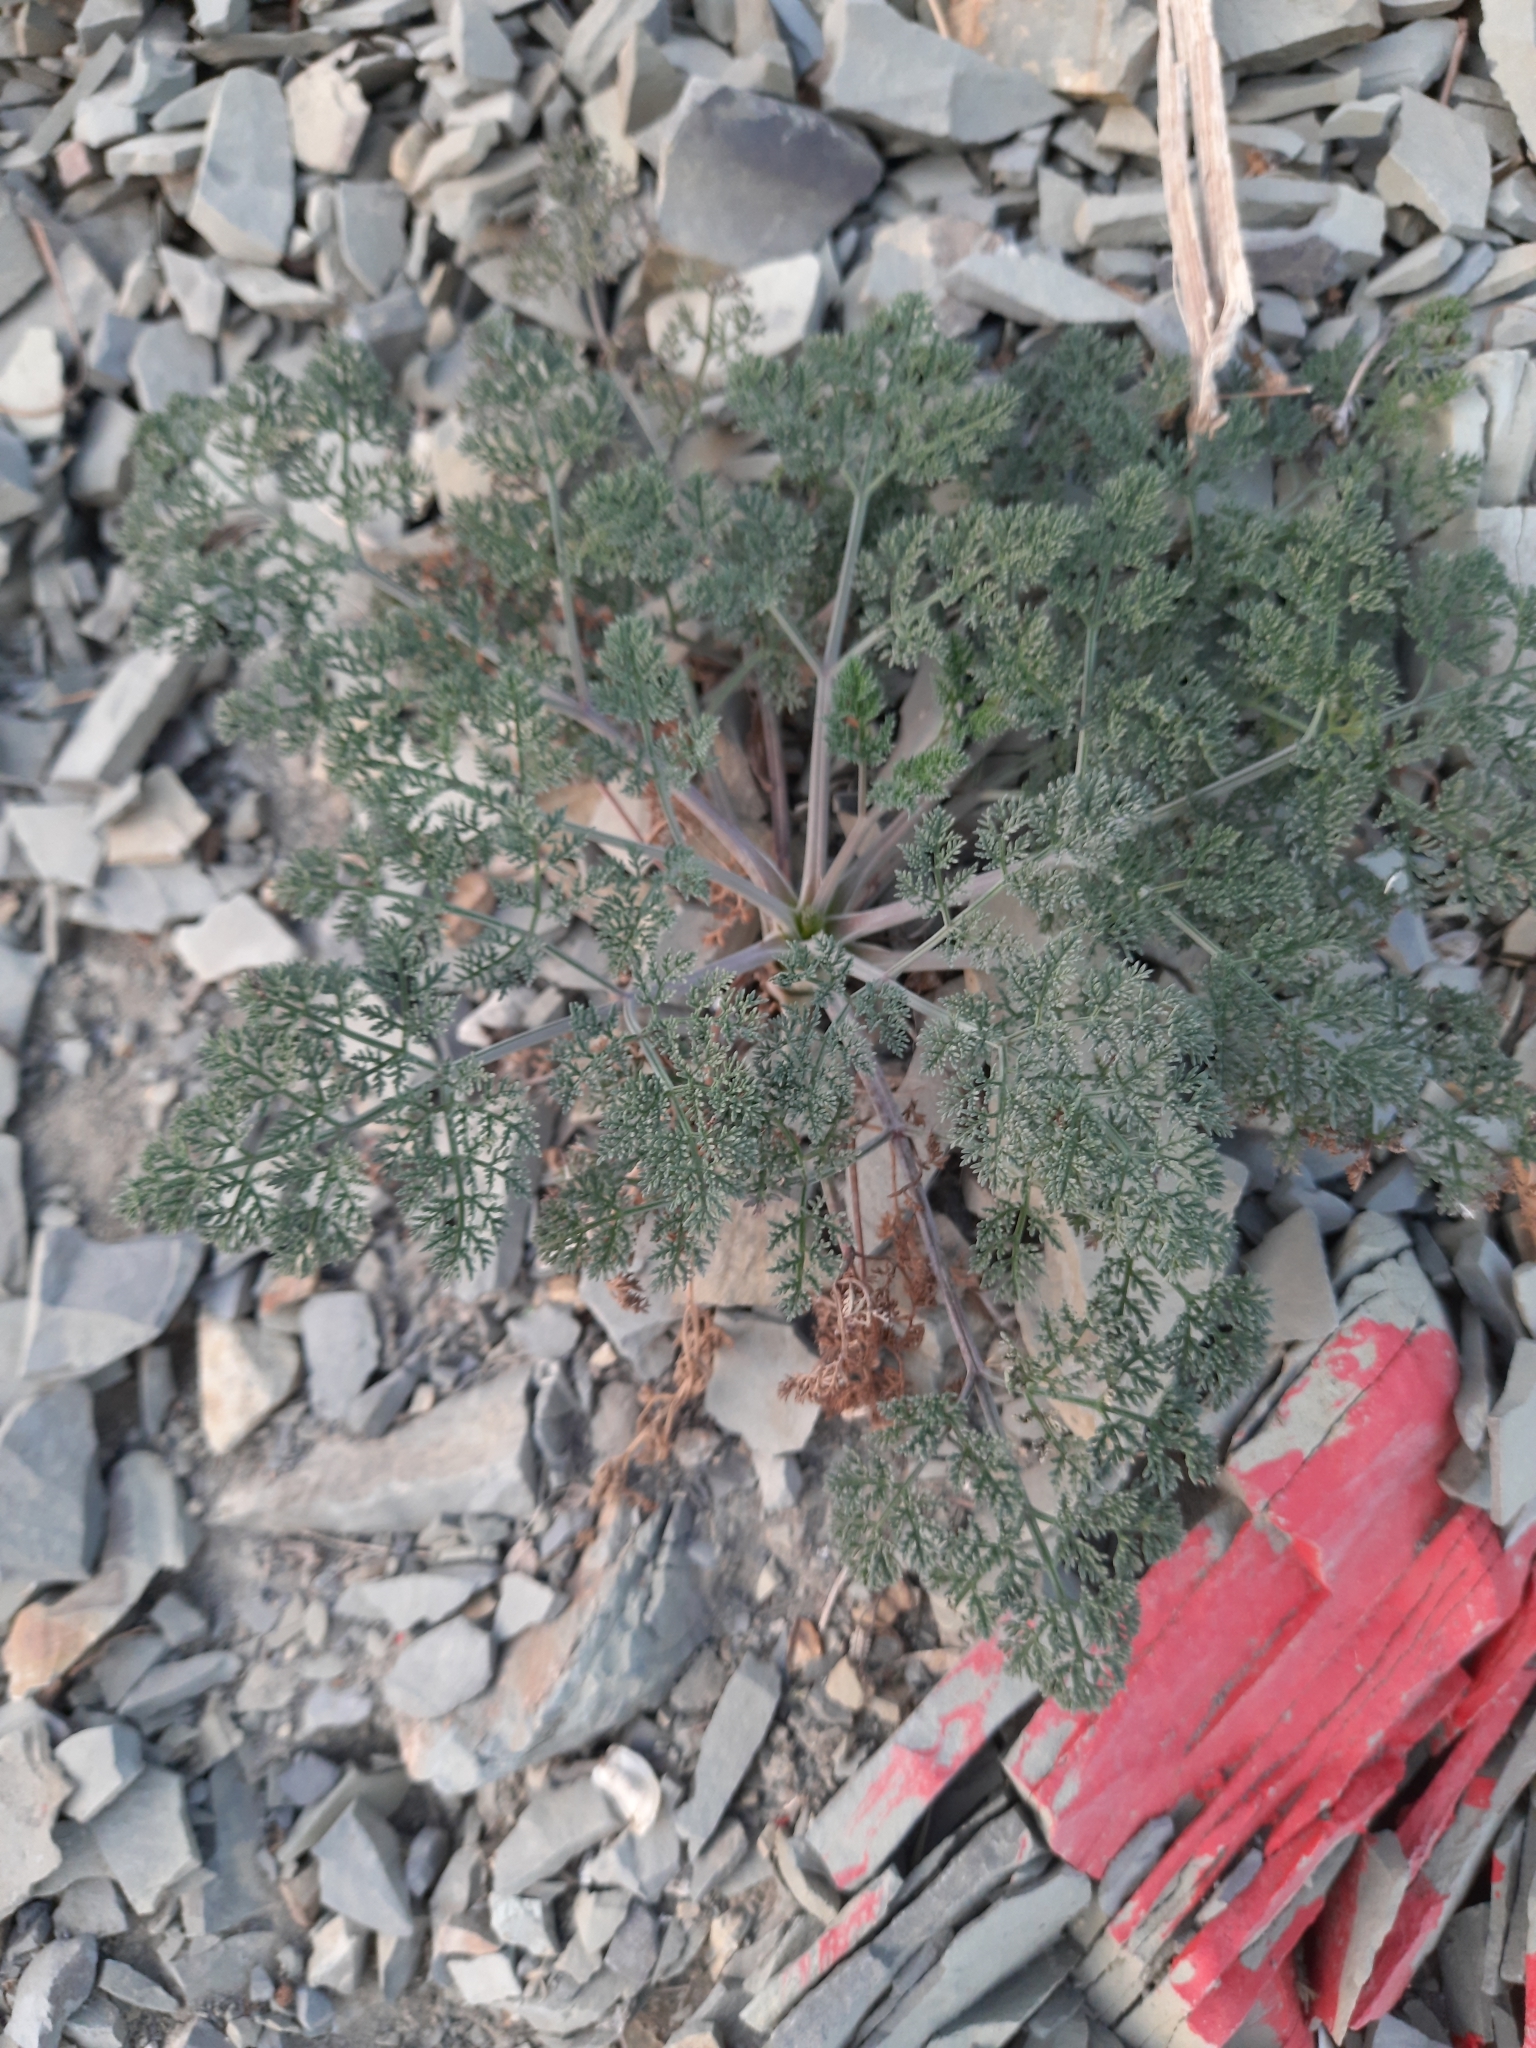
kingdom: Plantae
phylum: Tracheophyta
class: Magnoliopsida
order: Apiales
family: Apiaceae
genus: Astrodaucus
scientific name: Astrodaucus orientalis
